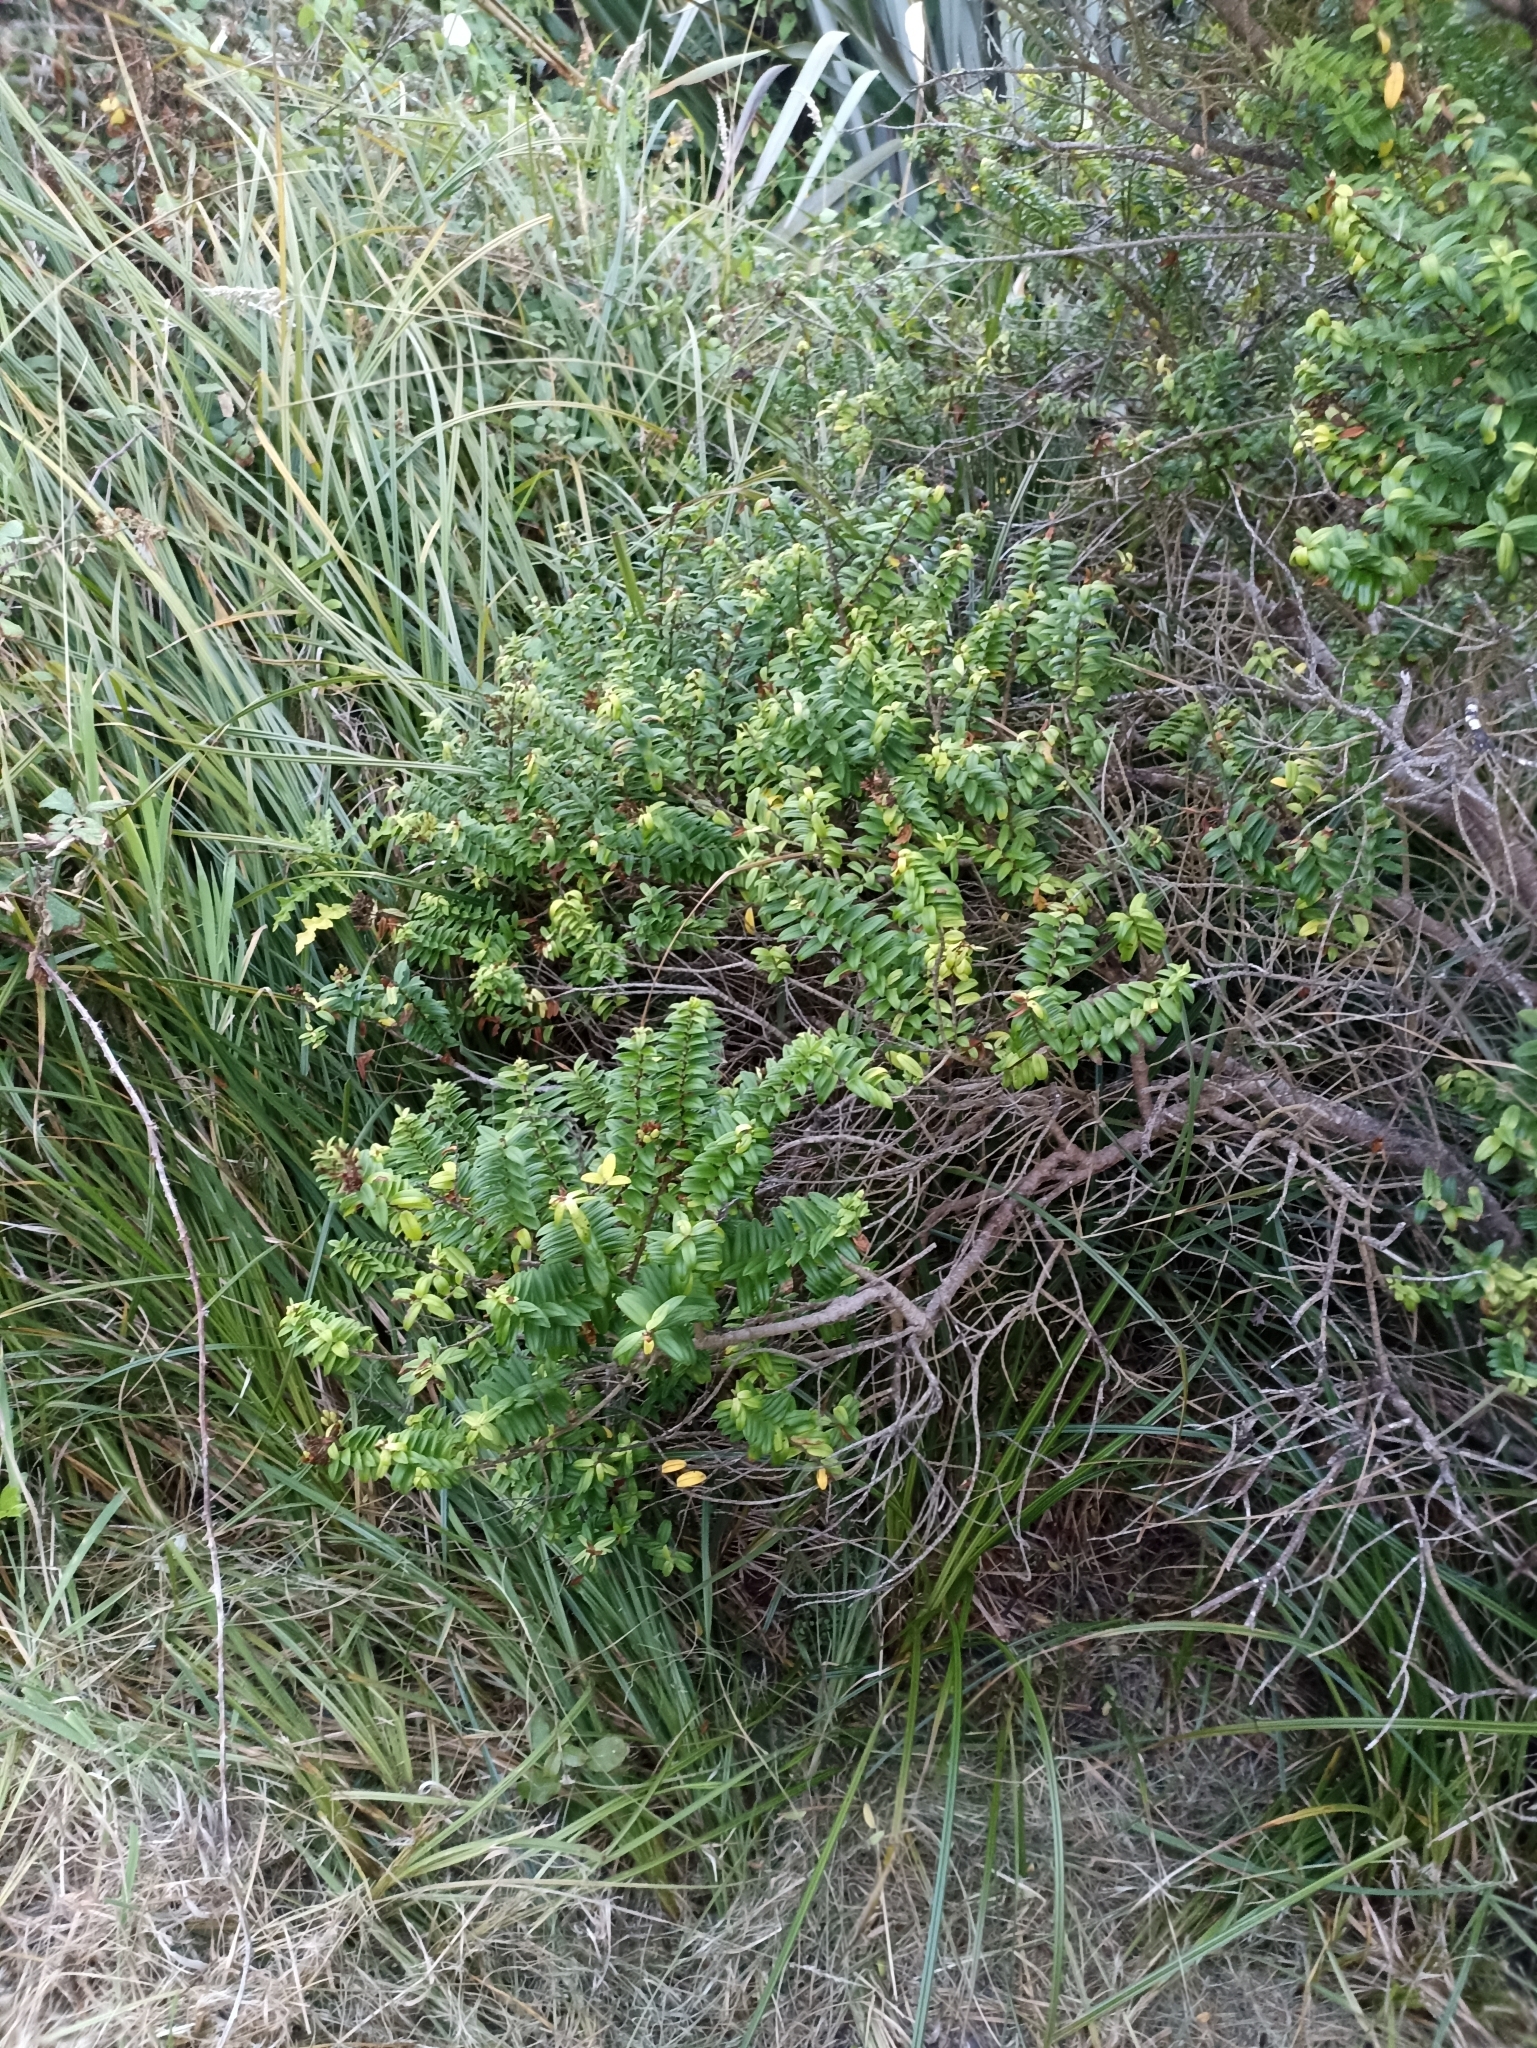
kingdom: Plantae
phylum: Tracheophyta
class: Magnoliopsida
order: Lamiales
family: Plantaginaceae
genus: Veronica
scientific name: Veronica elliptica
